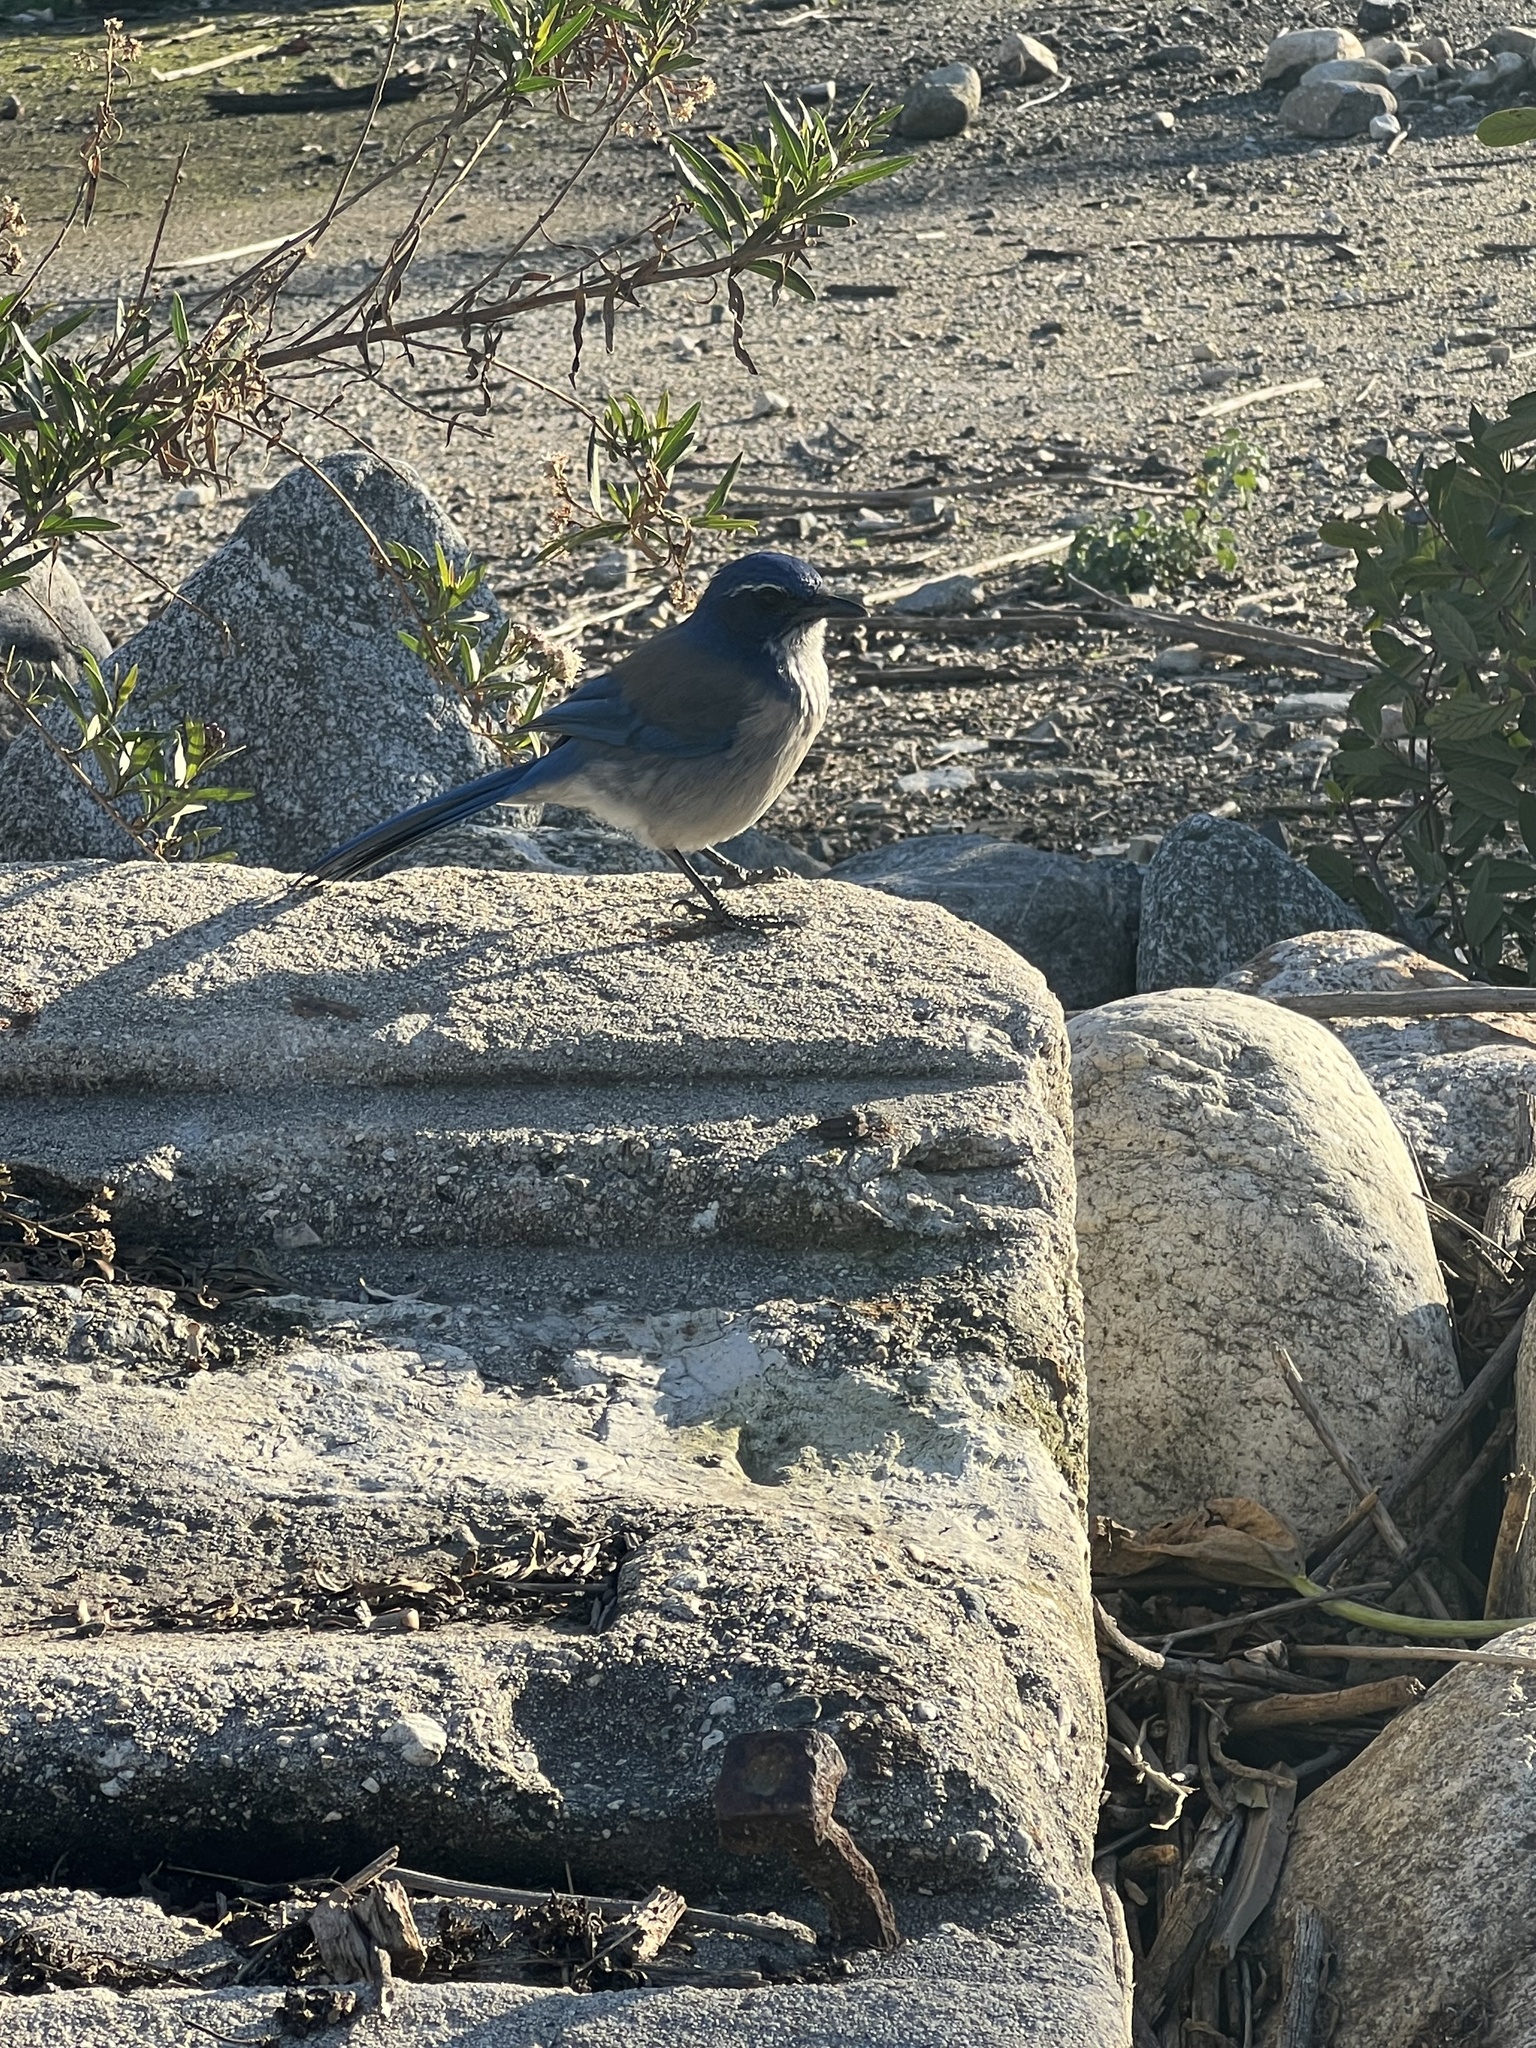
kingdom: Animalia
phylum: Chordata
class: Aves
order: Passeriformes
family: Corvidae
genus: Aphelocoma
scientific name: Aphelocoma californica
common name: California scrub-jay
